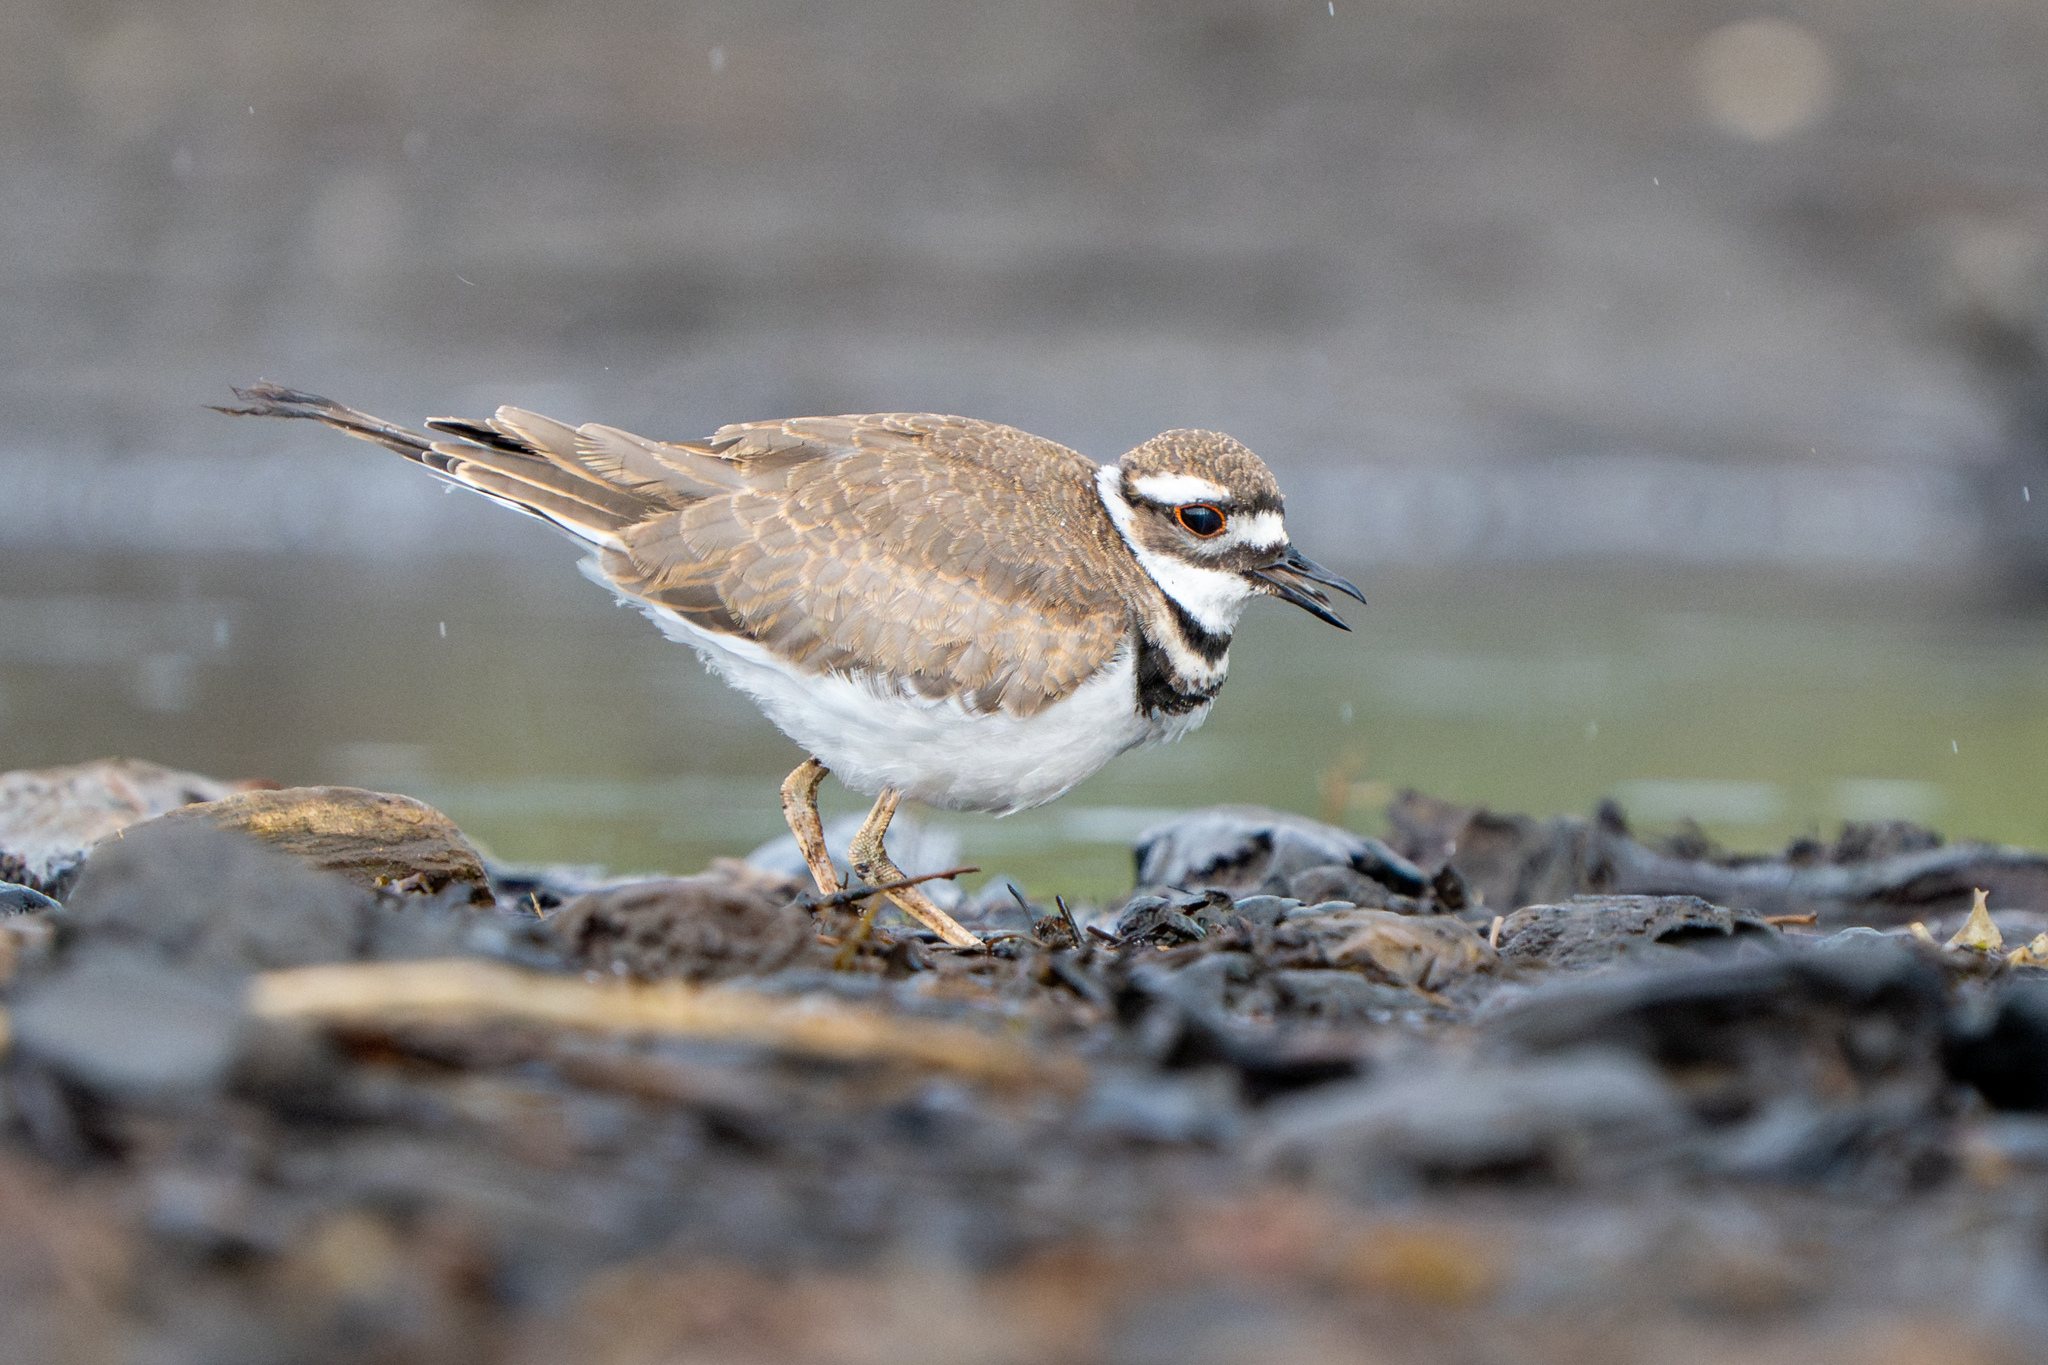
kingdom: Animalia
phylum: Chordata
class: Aves
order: Charadriiformes
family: Charadriidae
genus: Charadrius
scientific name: Charadrius vociferus
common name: Killdeer
